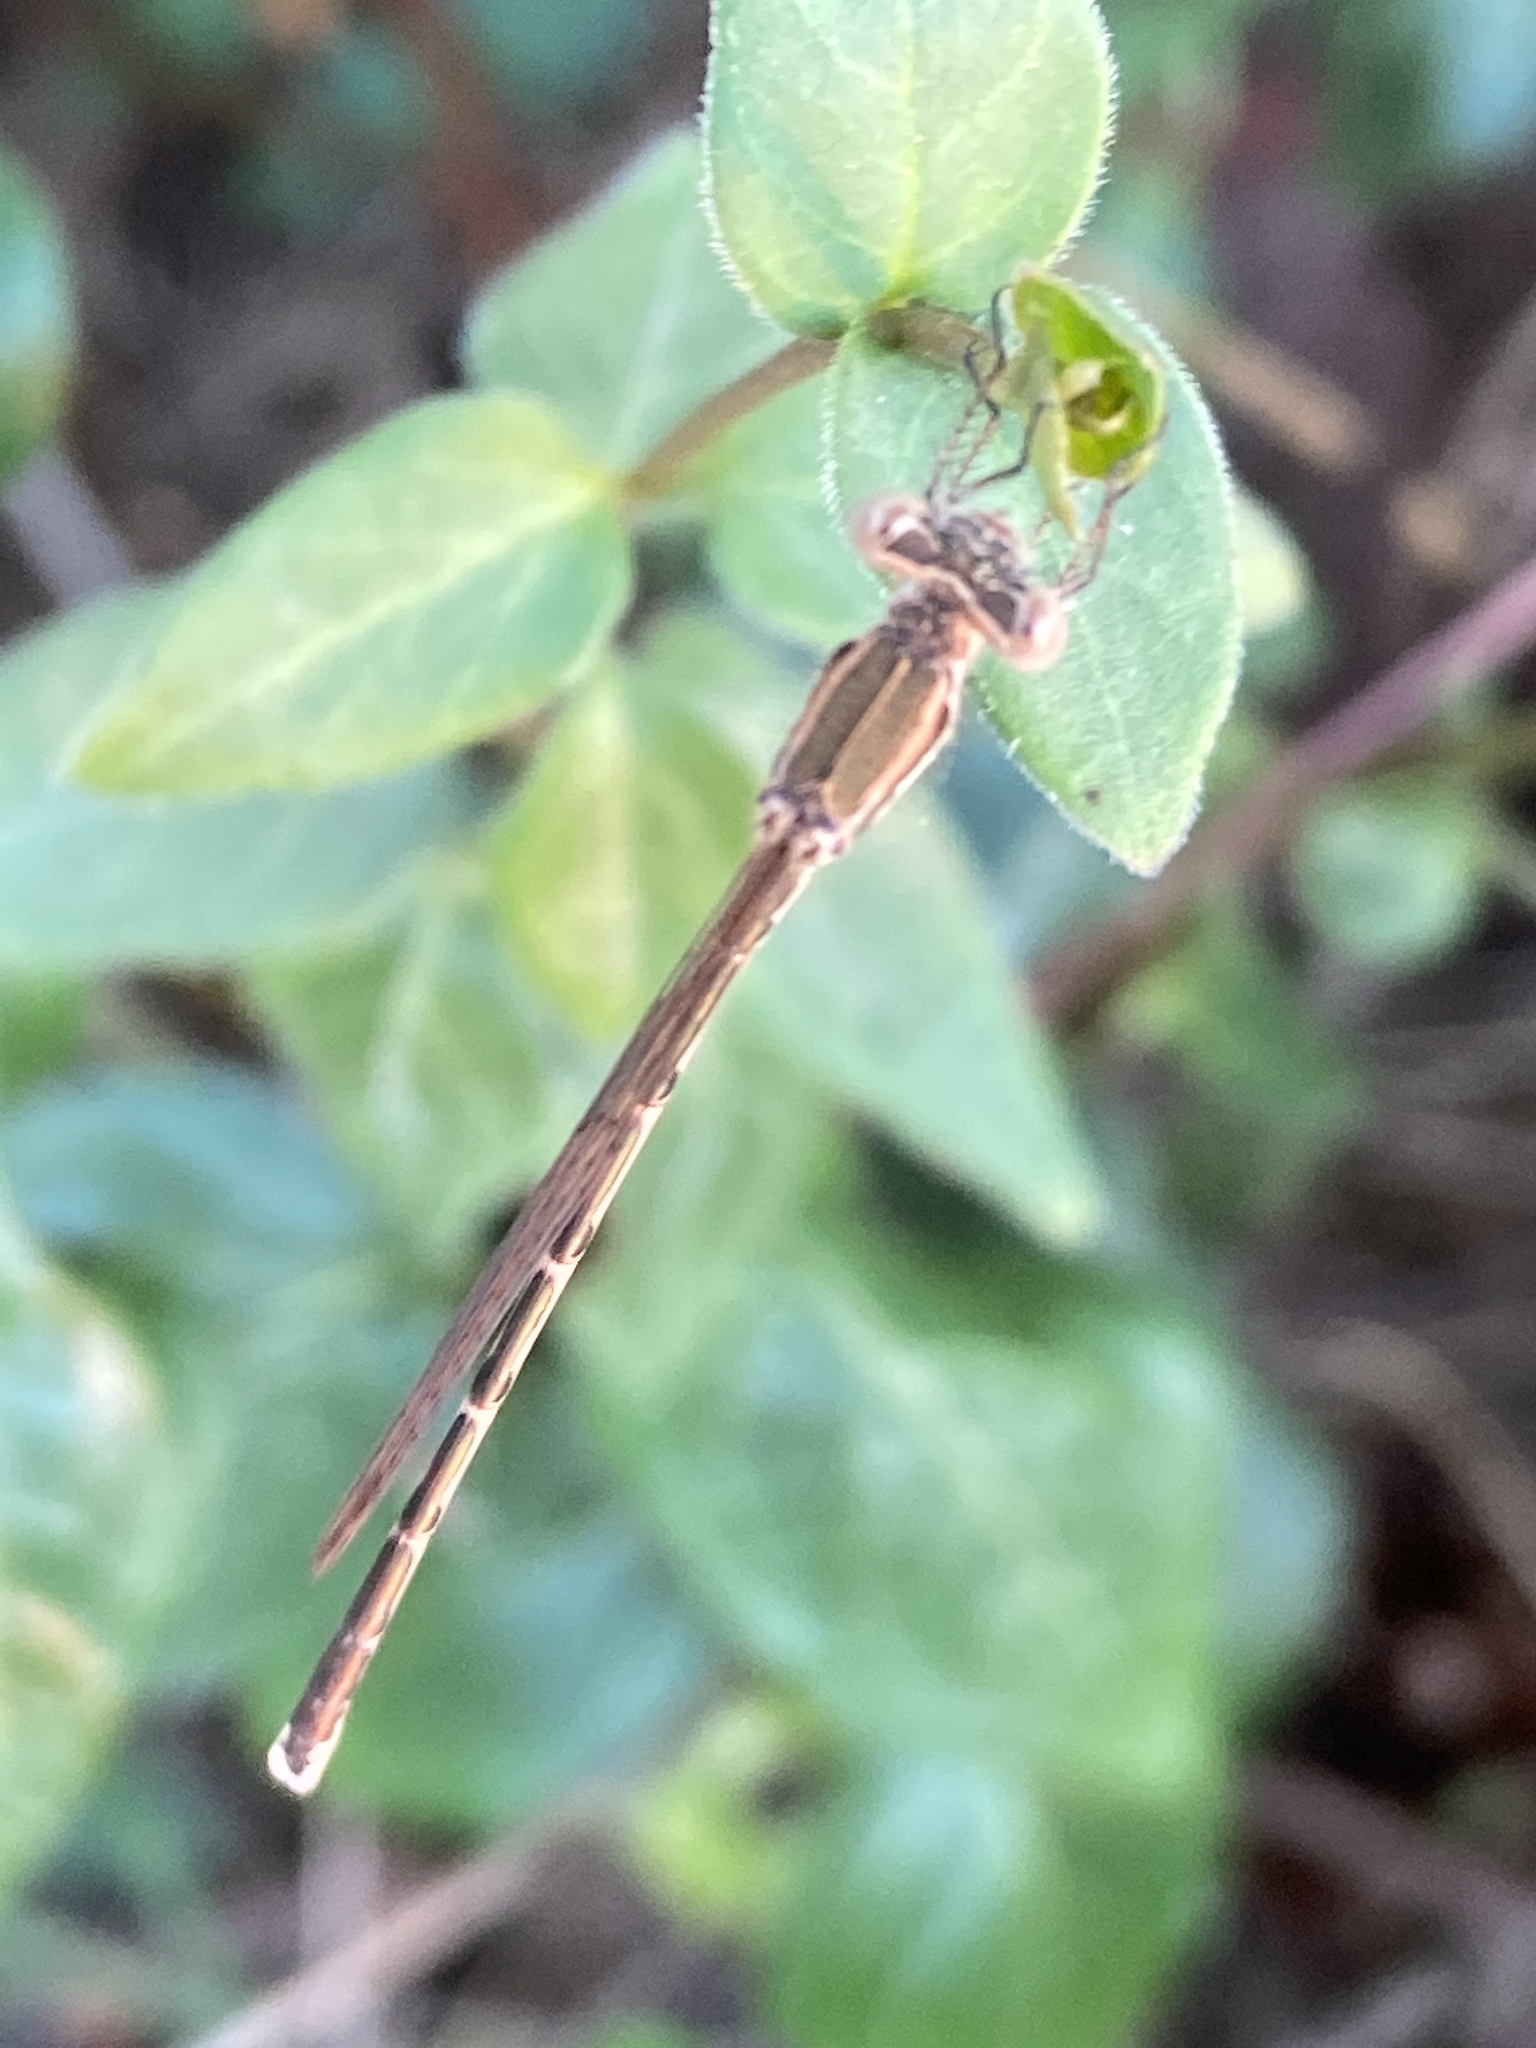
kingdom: Animalia
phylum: Arthropoda
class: Insecta
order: Odonata
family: Lestidae
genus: Sympecma
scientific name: Sympecma fusca
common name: Common winter damsel
